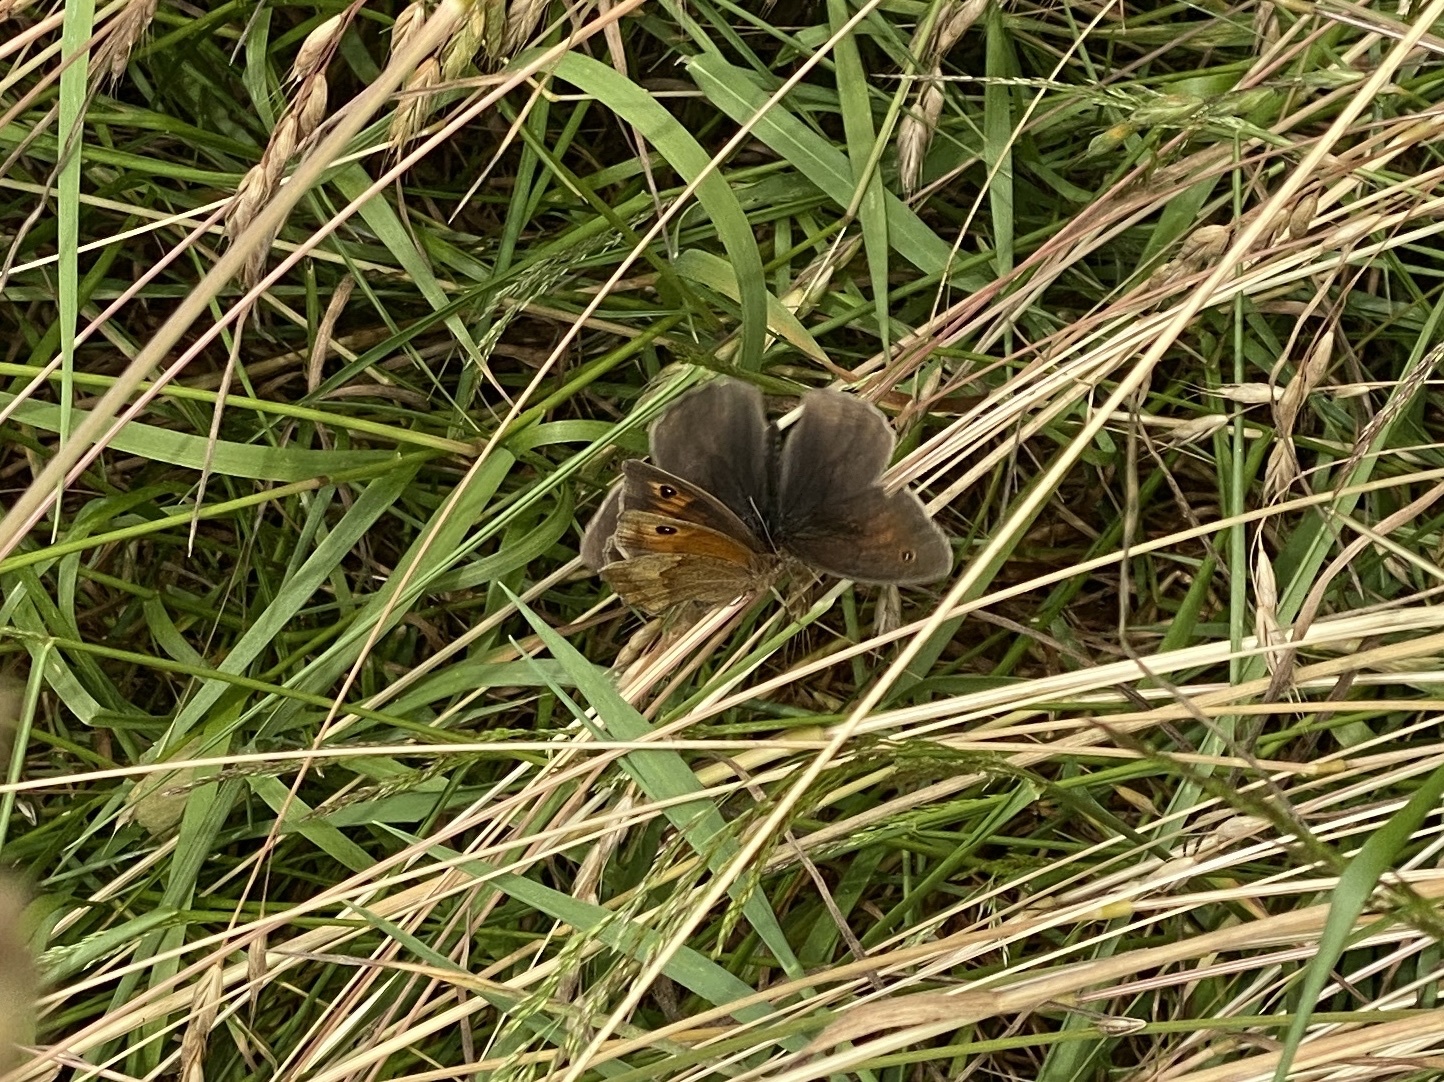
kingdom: Animalia
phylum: Arthropoda
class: Insecta
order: Lepidoptera
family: Nymphalidae
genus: Maniola
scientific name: Maniola jurtina
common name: Meadow brown
